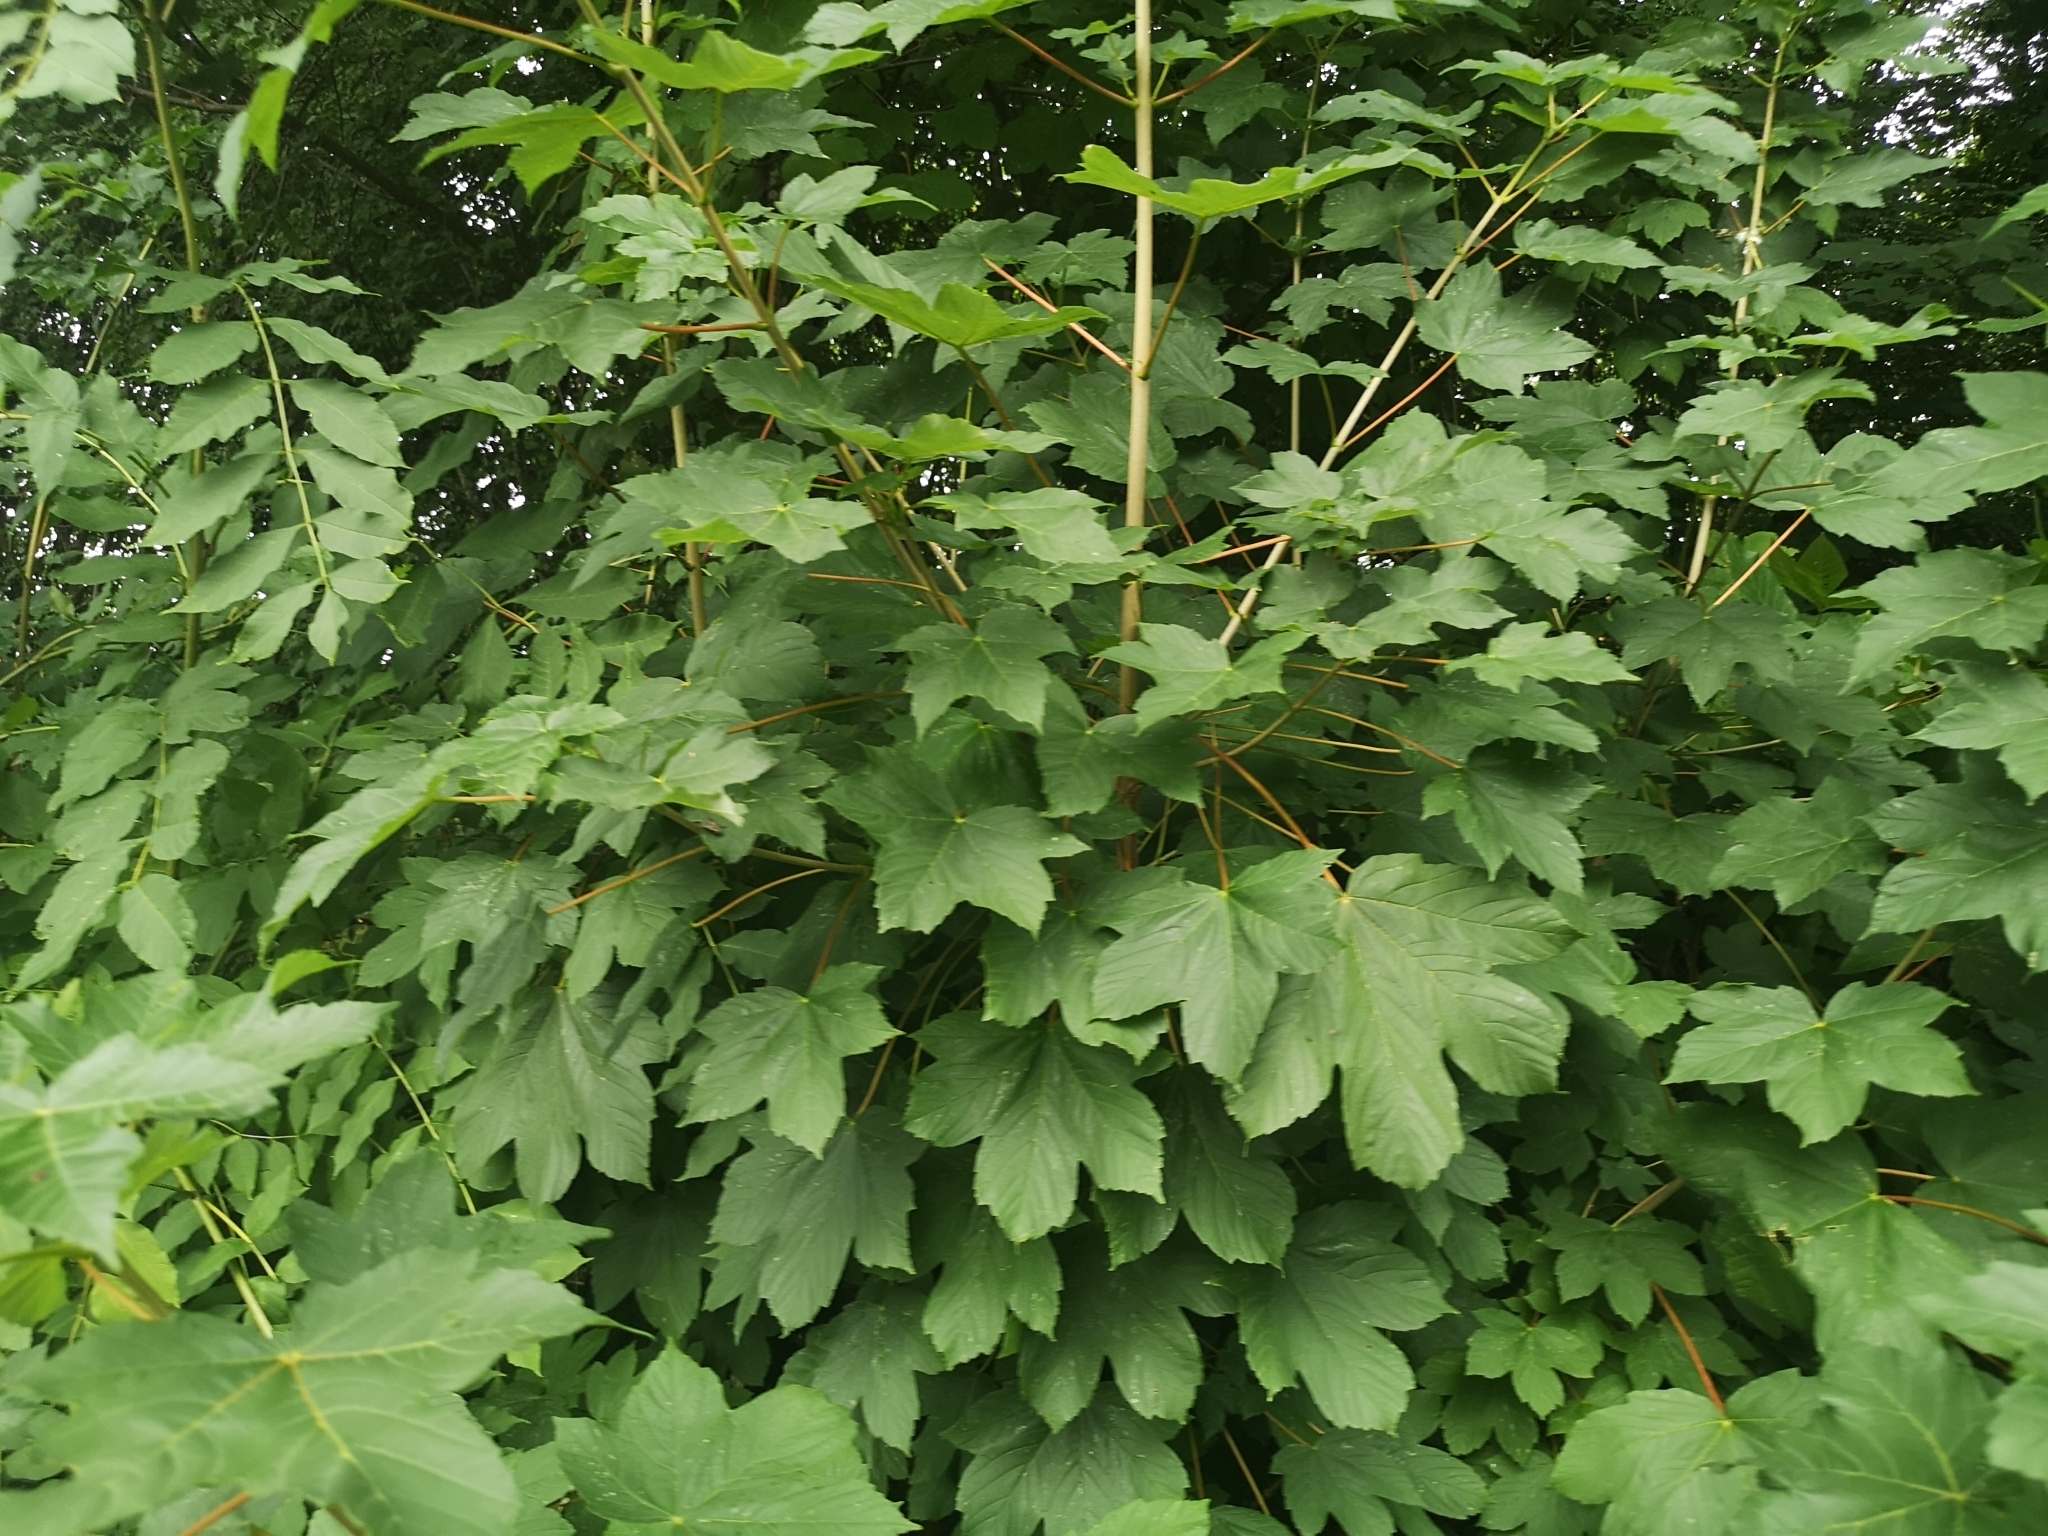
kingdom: Plantae
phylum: Tracheophyta
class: Magnoliopsida
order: Sapindales
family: Sapindaceae
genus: Acer
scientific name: Acer pseudoplatanus
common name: Sycamore
